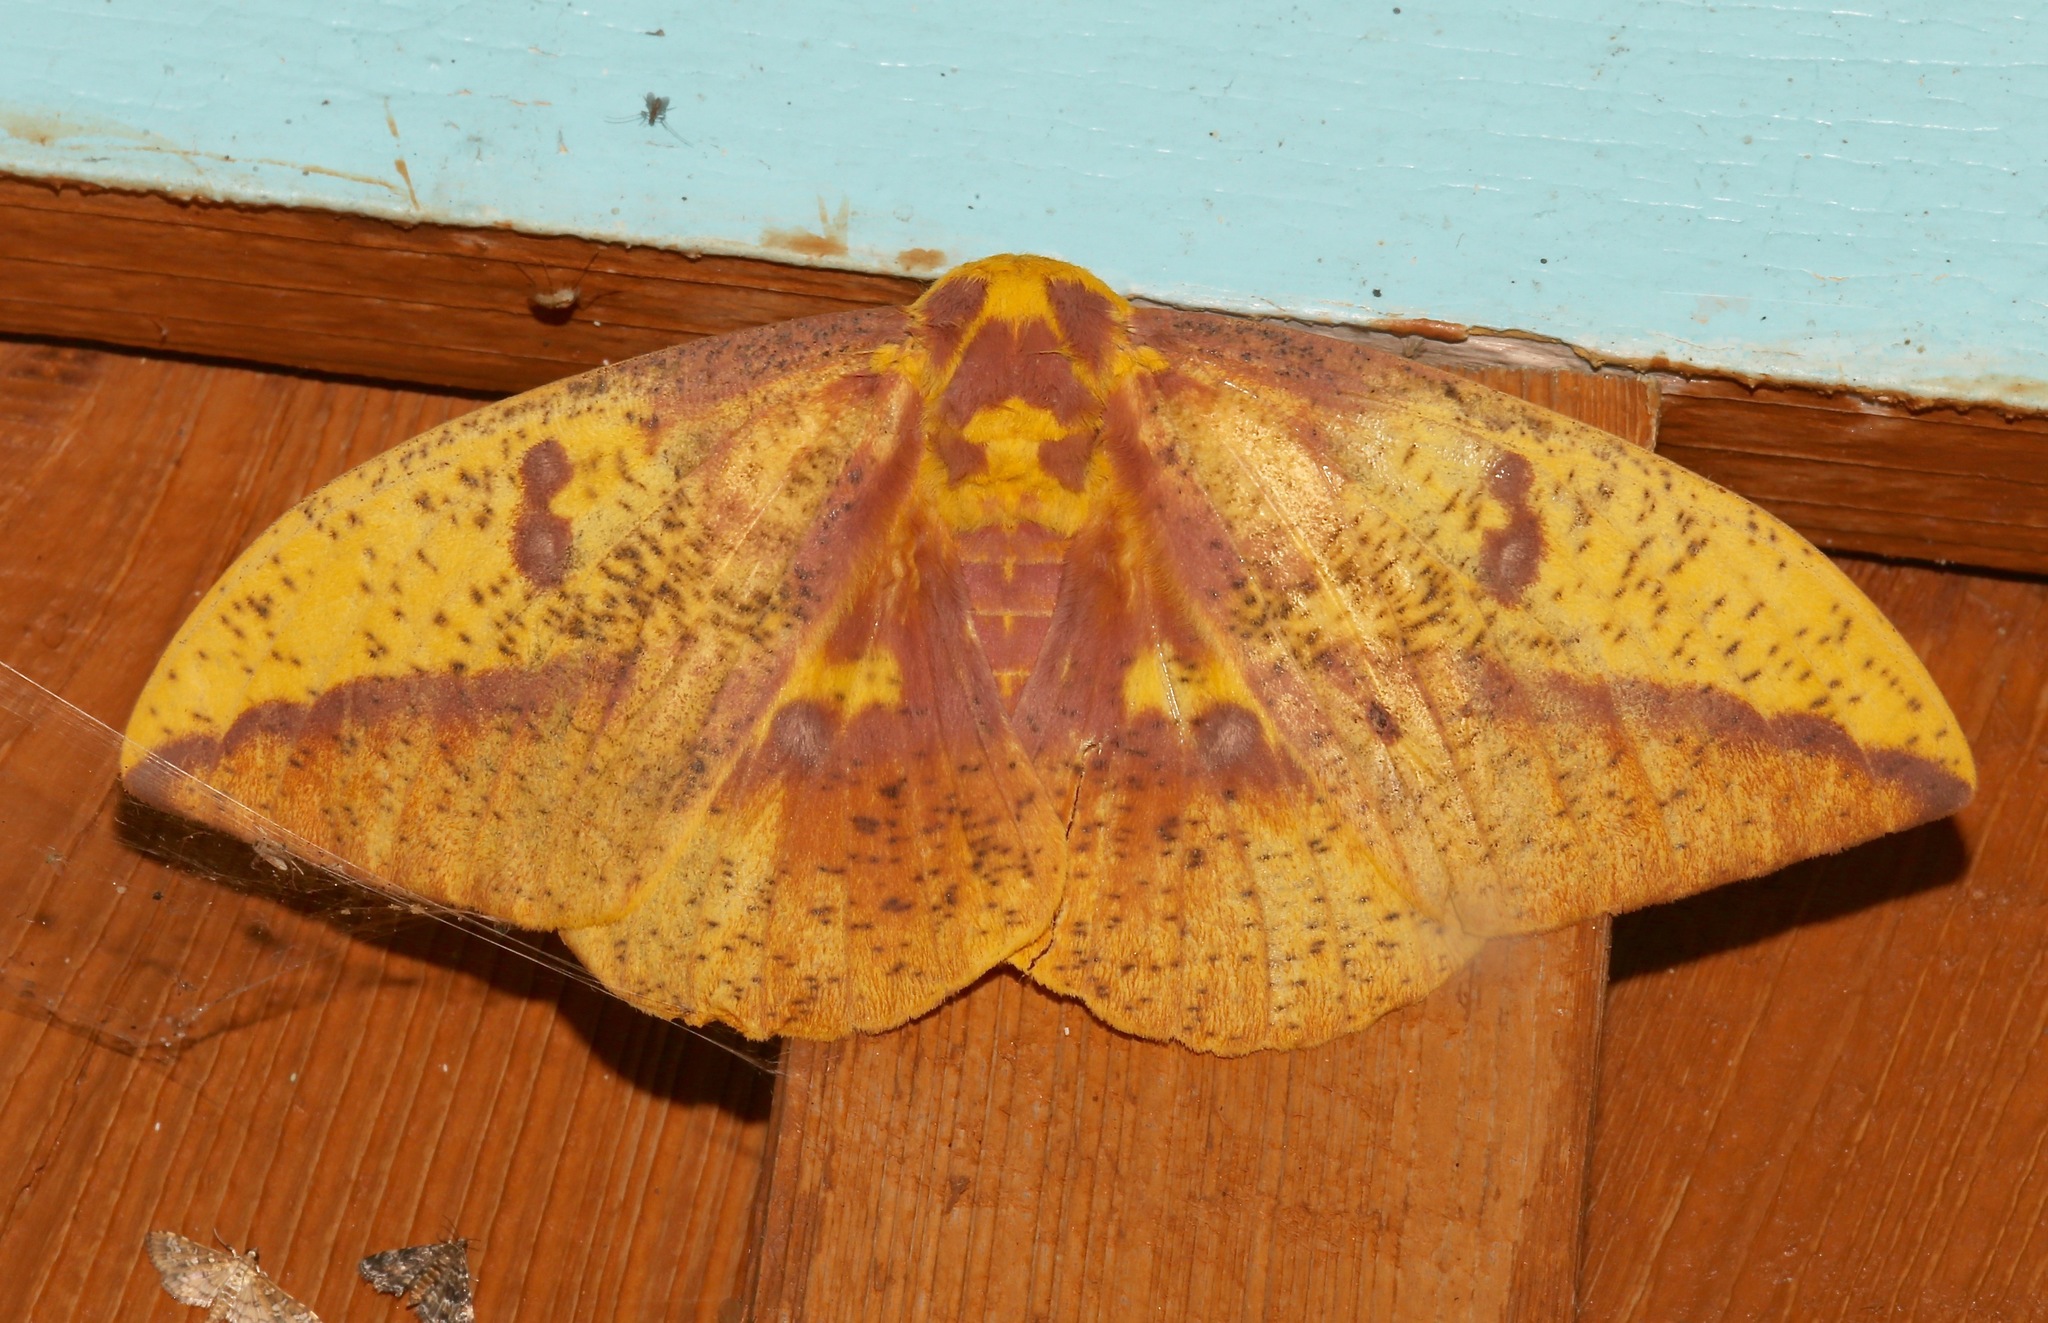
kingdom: Animalia
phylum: Arthropoda
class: Insecta
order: Lepidoptera
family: Saturniidae
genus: Eacles
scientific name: Eacles imperialis
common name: Imperial moth
